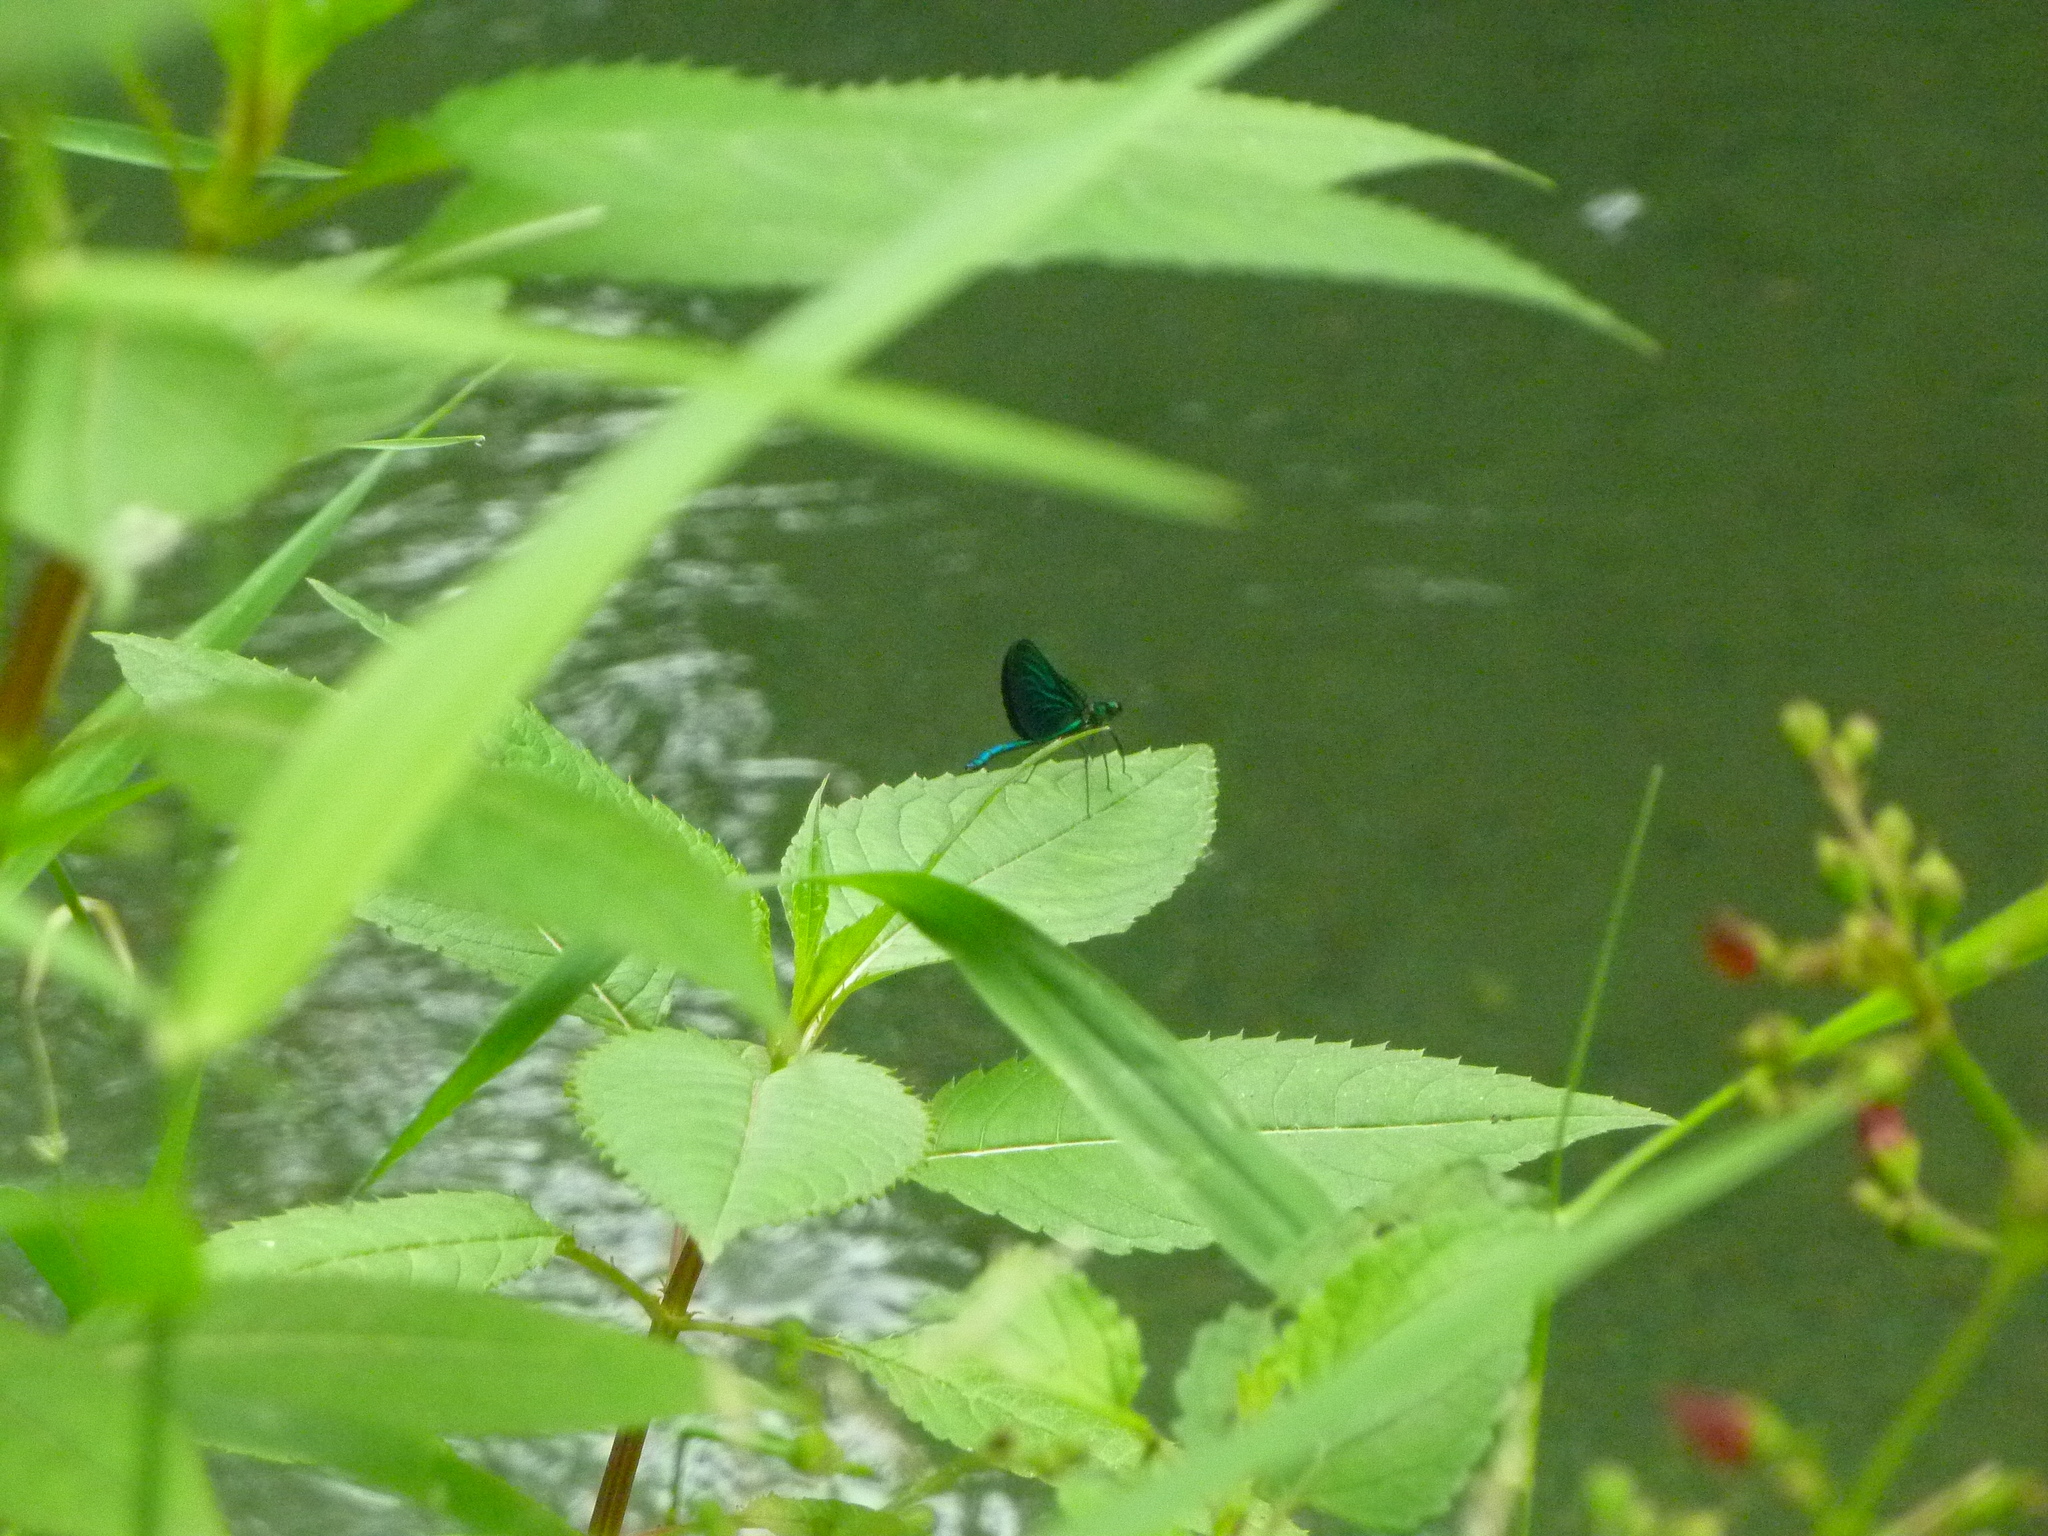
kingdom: Animalia
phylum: Arthropoda
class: Insecta
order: Odonata
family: Calopterygidae
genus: Calopteryx
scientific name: Calopteryx virgo
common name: Beautiful demoiselle
